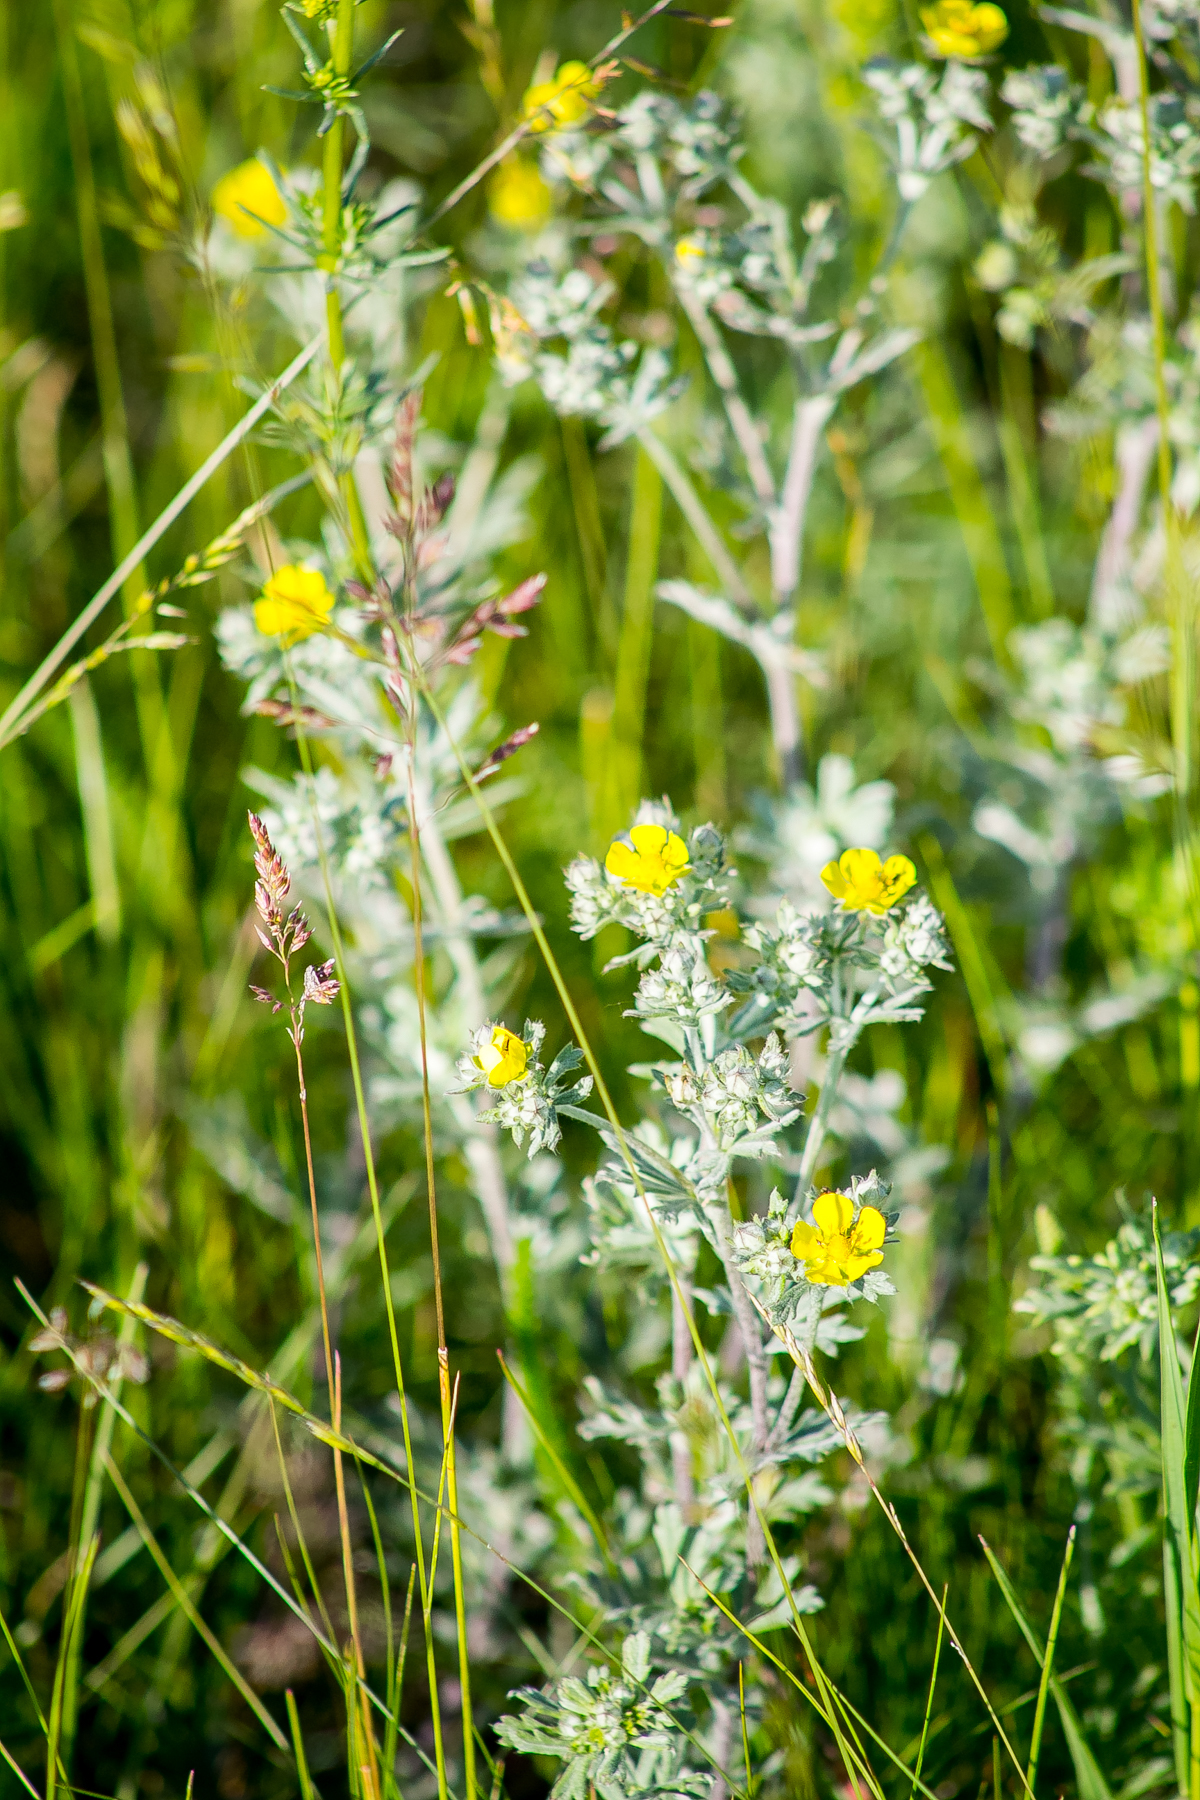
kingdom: Plantae
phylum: Tracheophyta
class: Magnoliopsida
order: Rosales
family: Rosaceae
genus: Potentilla
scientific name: Potentilla argentea
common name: Hoary cinquefoil
